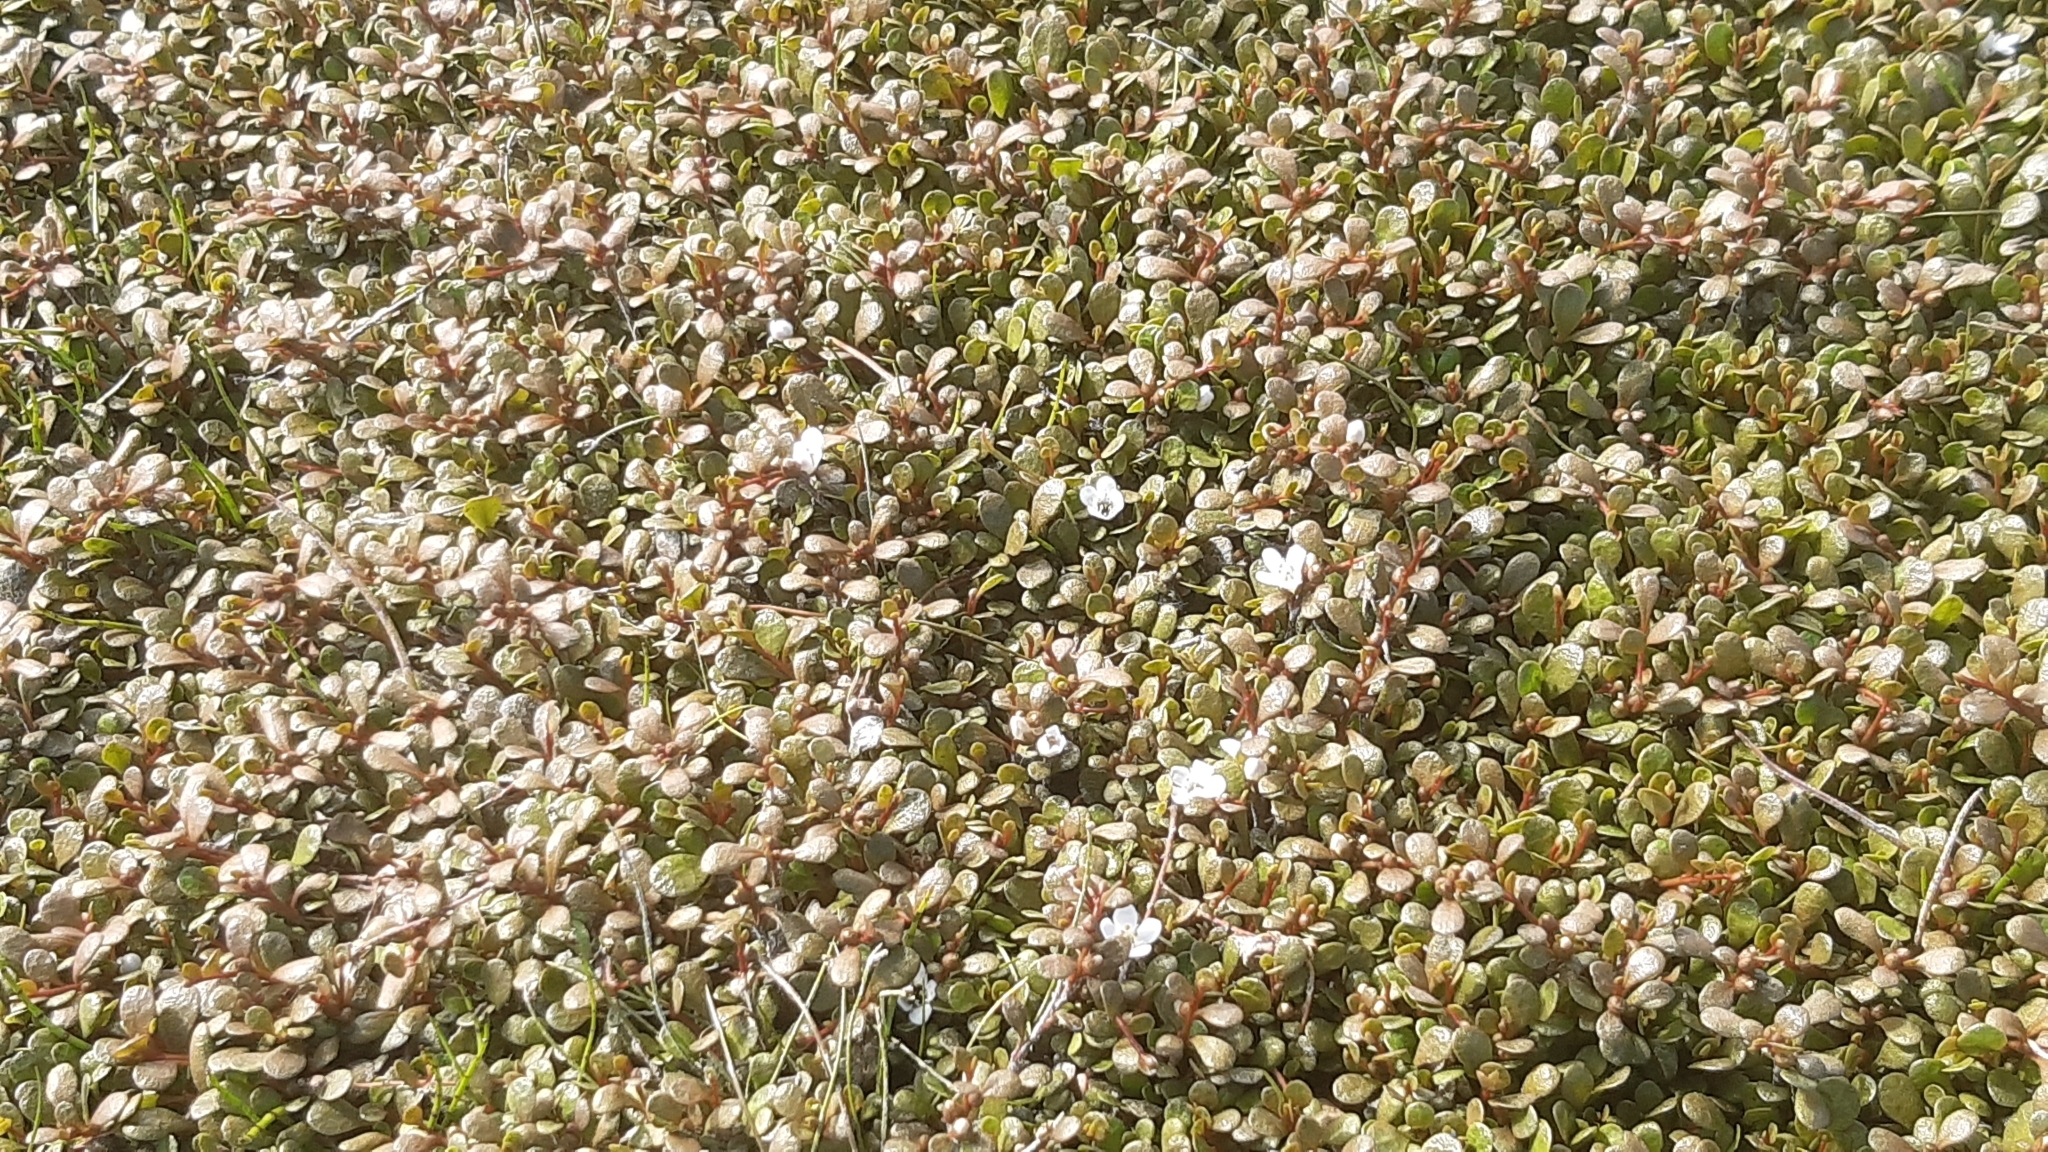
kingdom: Plantae
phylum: Tracheophyta
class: Magnoliopsida
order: Ericales
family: Primulaceae
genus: Samolus
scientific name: Samolus repens
